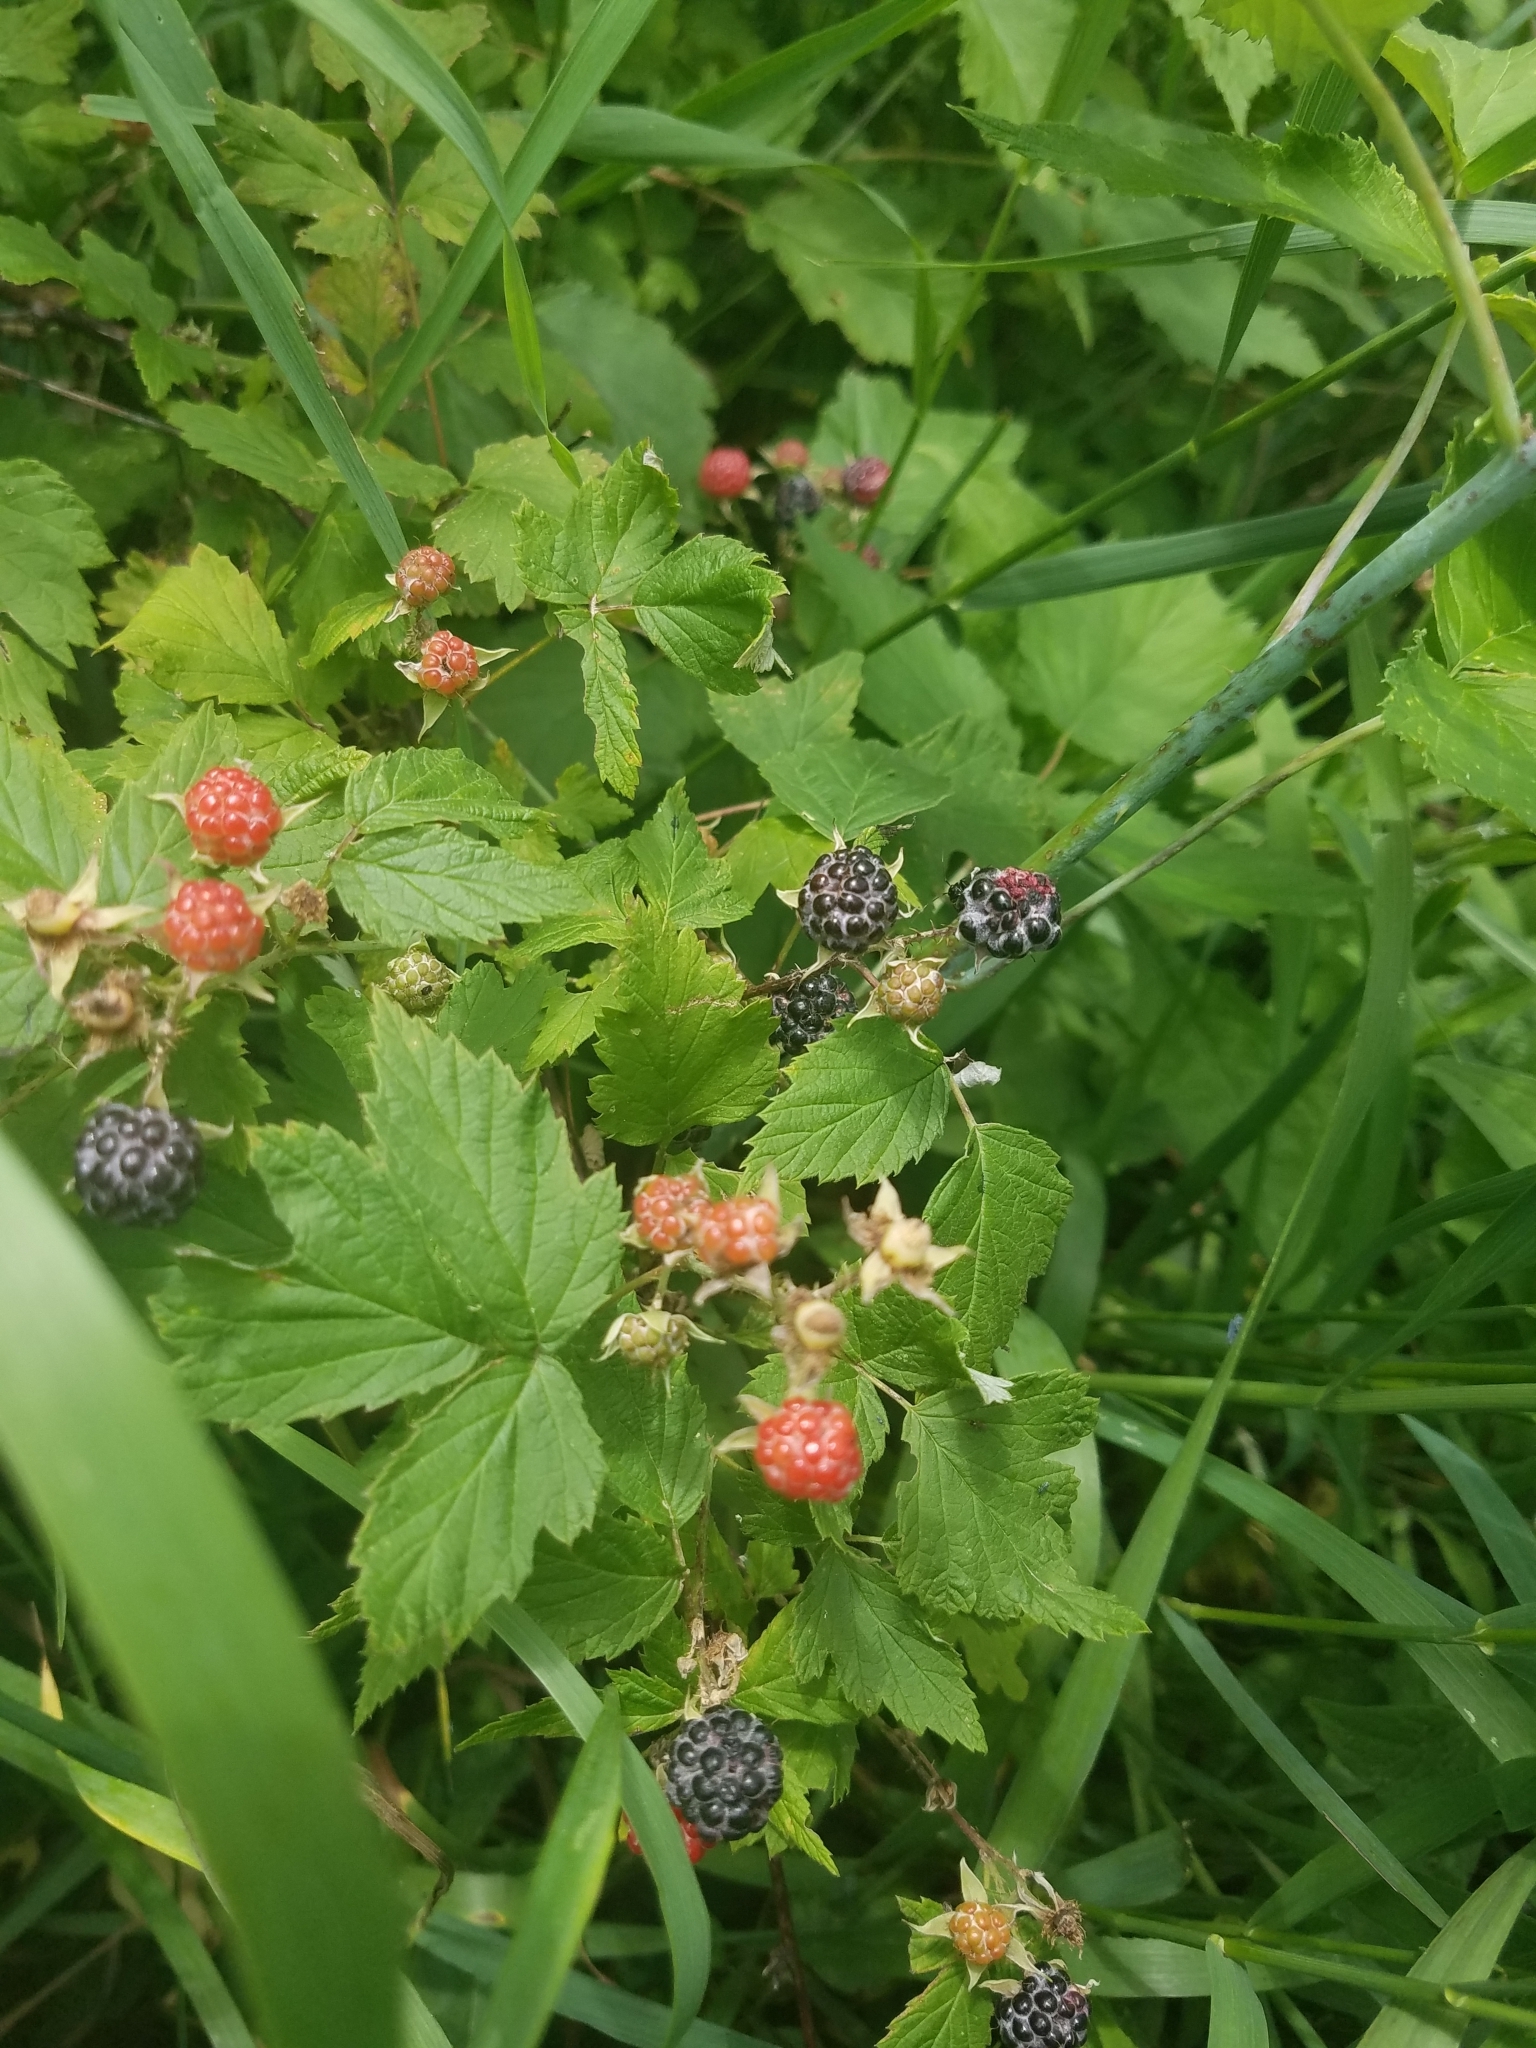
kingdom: Plantae
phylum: Tracheophyta
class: Magnoliopsida
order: Rosales
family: Rosaceae
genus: Rubus
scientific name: Rubus occidentalis
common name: Black raspberry
